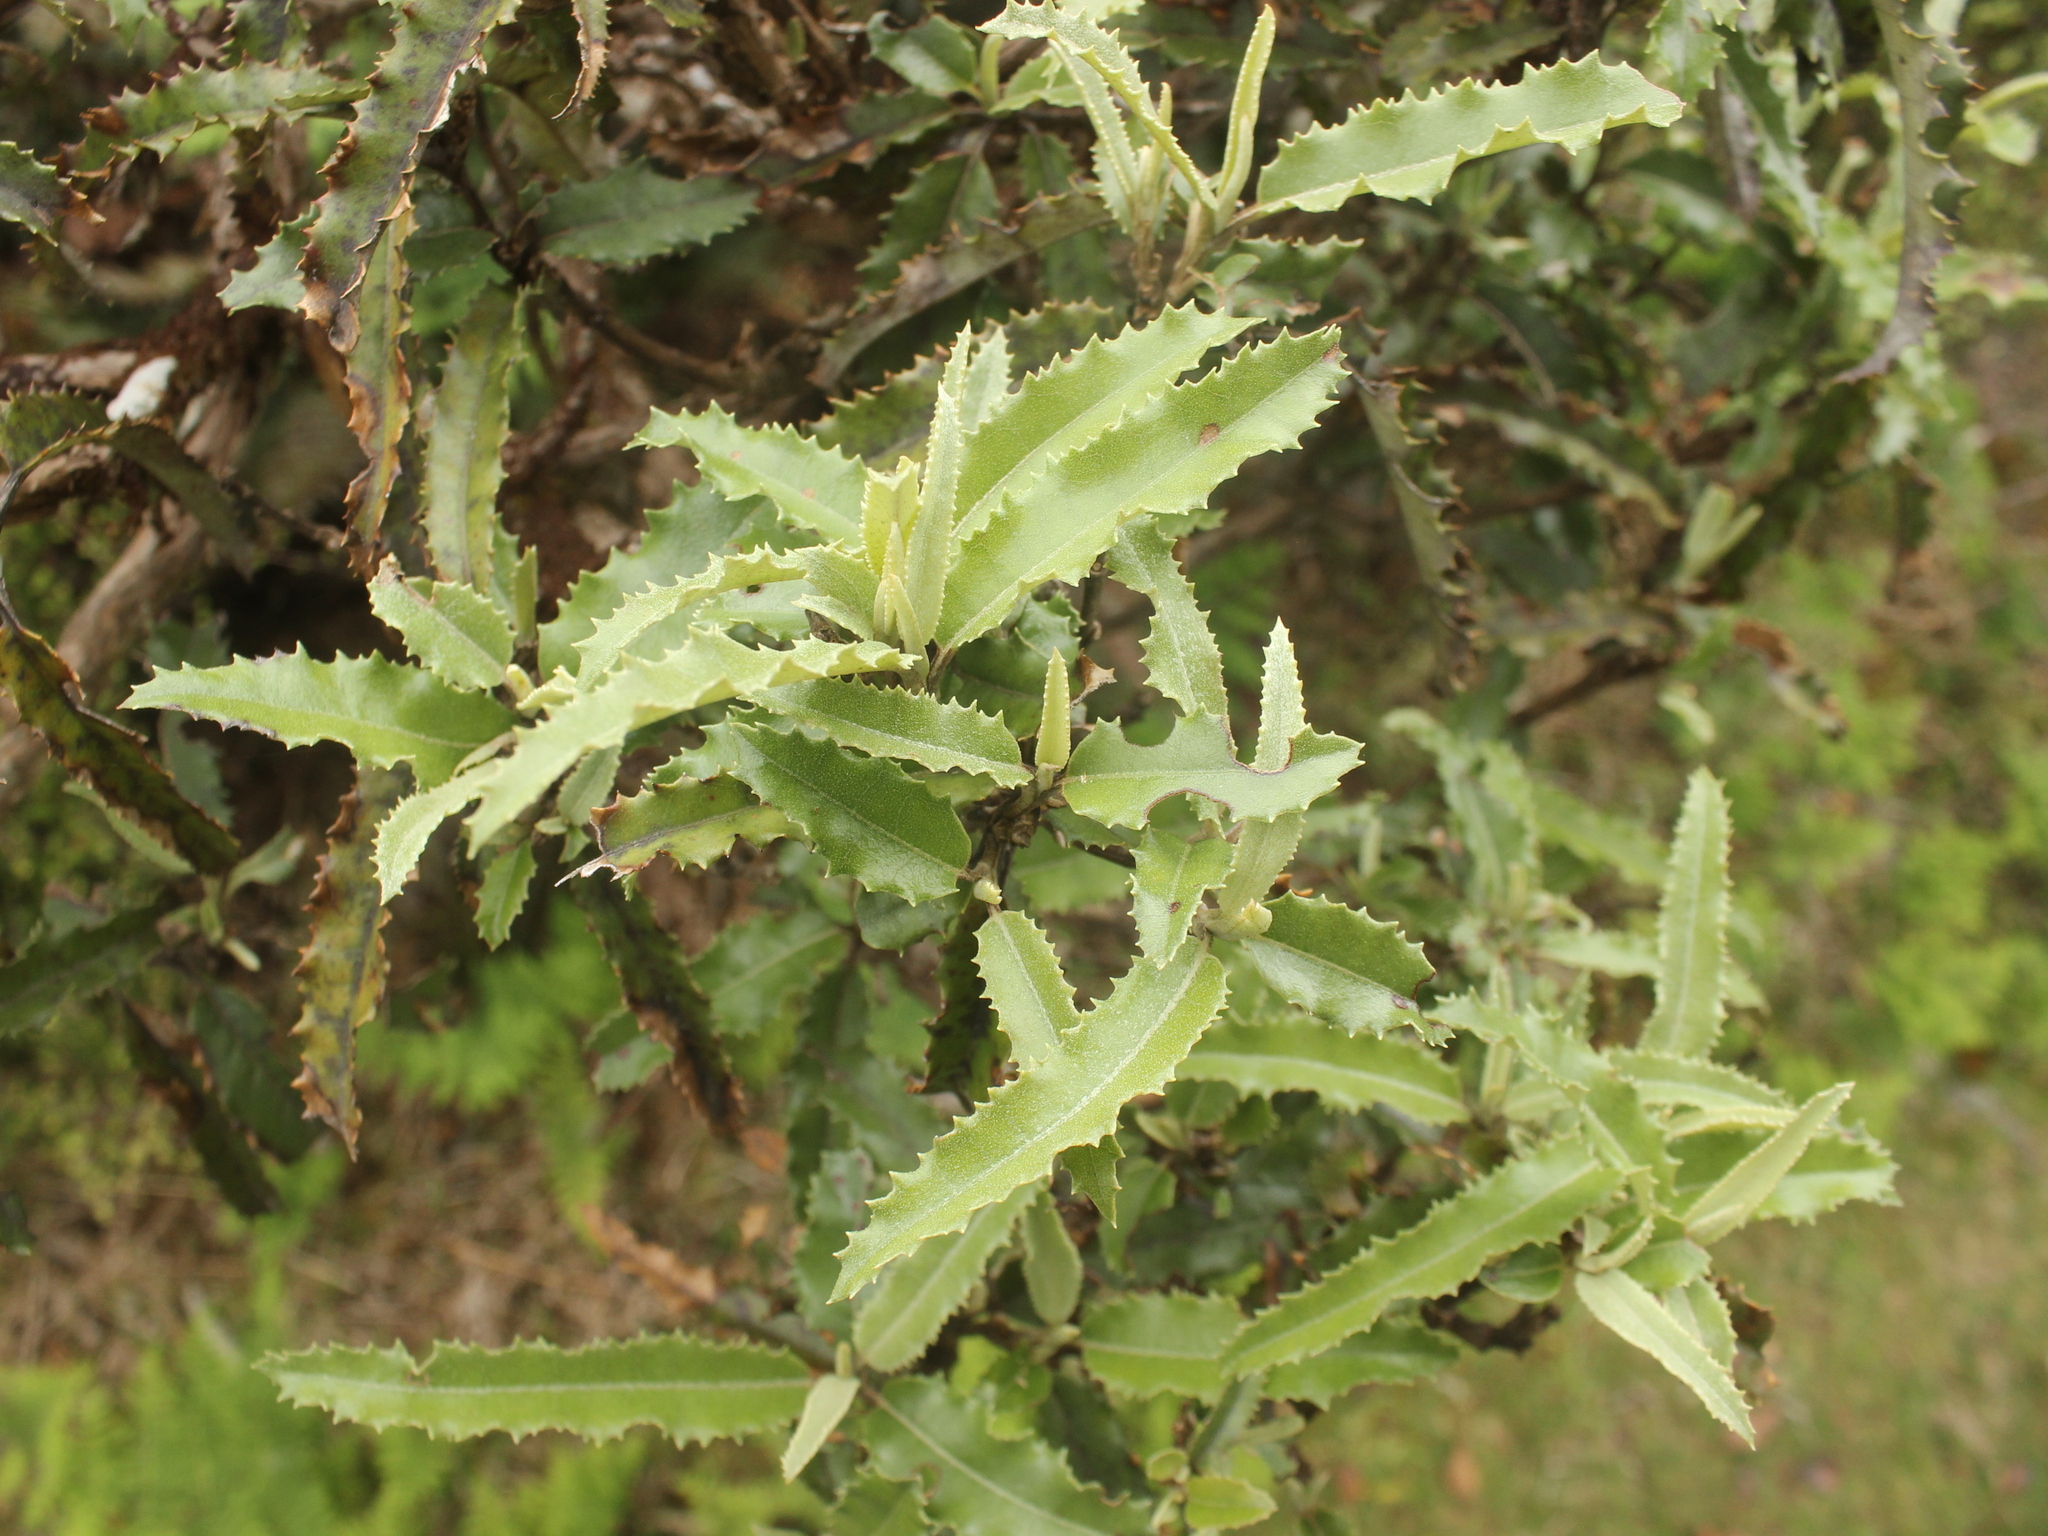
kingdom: Plantae
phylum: Tracheophyta
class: Magnoliopsida
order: Asterales
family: Asteraceae
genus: Olearia
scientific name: Olearia ilicifolia
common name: Maori-holly
